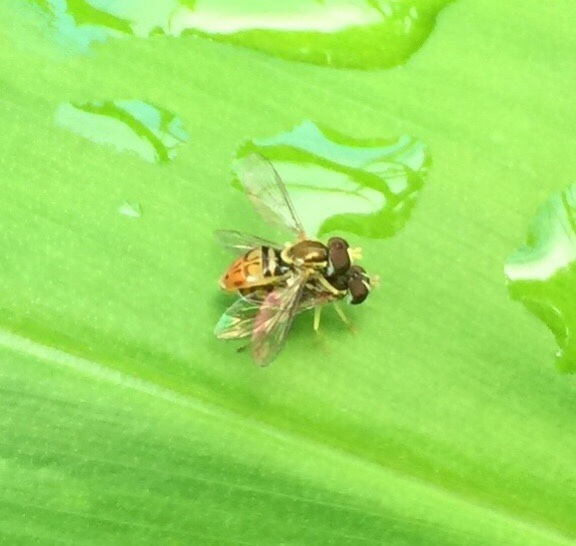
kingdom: Animalia
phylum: Arthropoda
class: Insecta
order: Diptera
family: Syrphidae
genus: Toxomerus
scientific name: Toxomerus marginatus
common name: Syrphid fly
